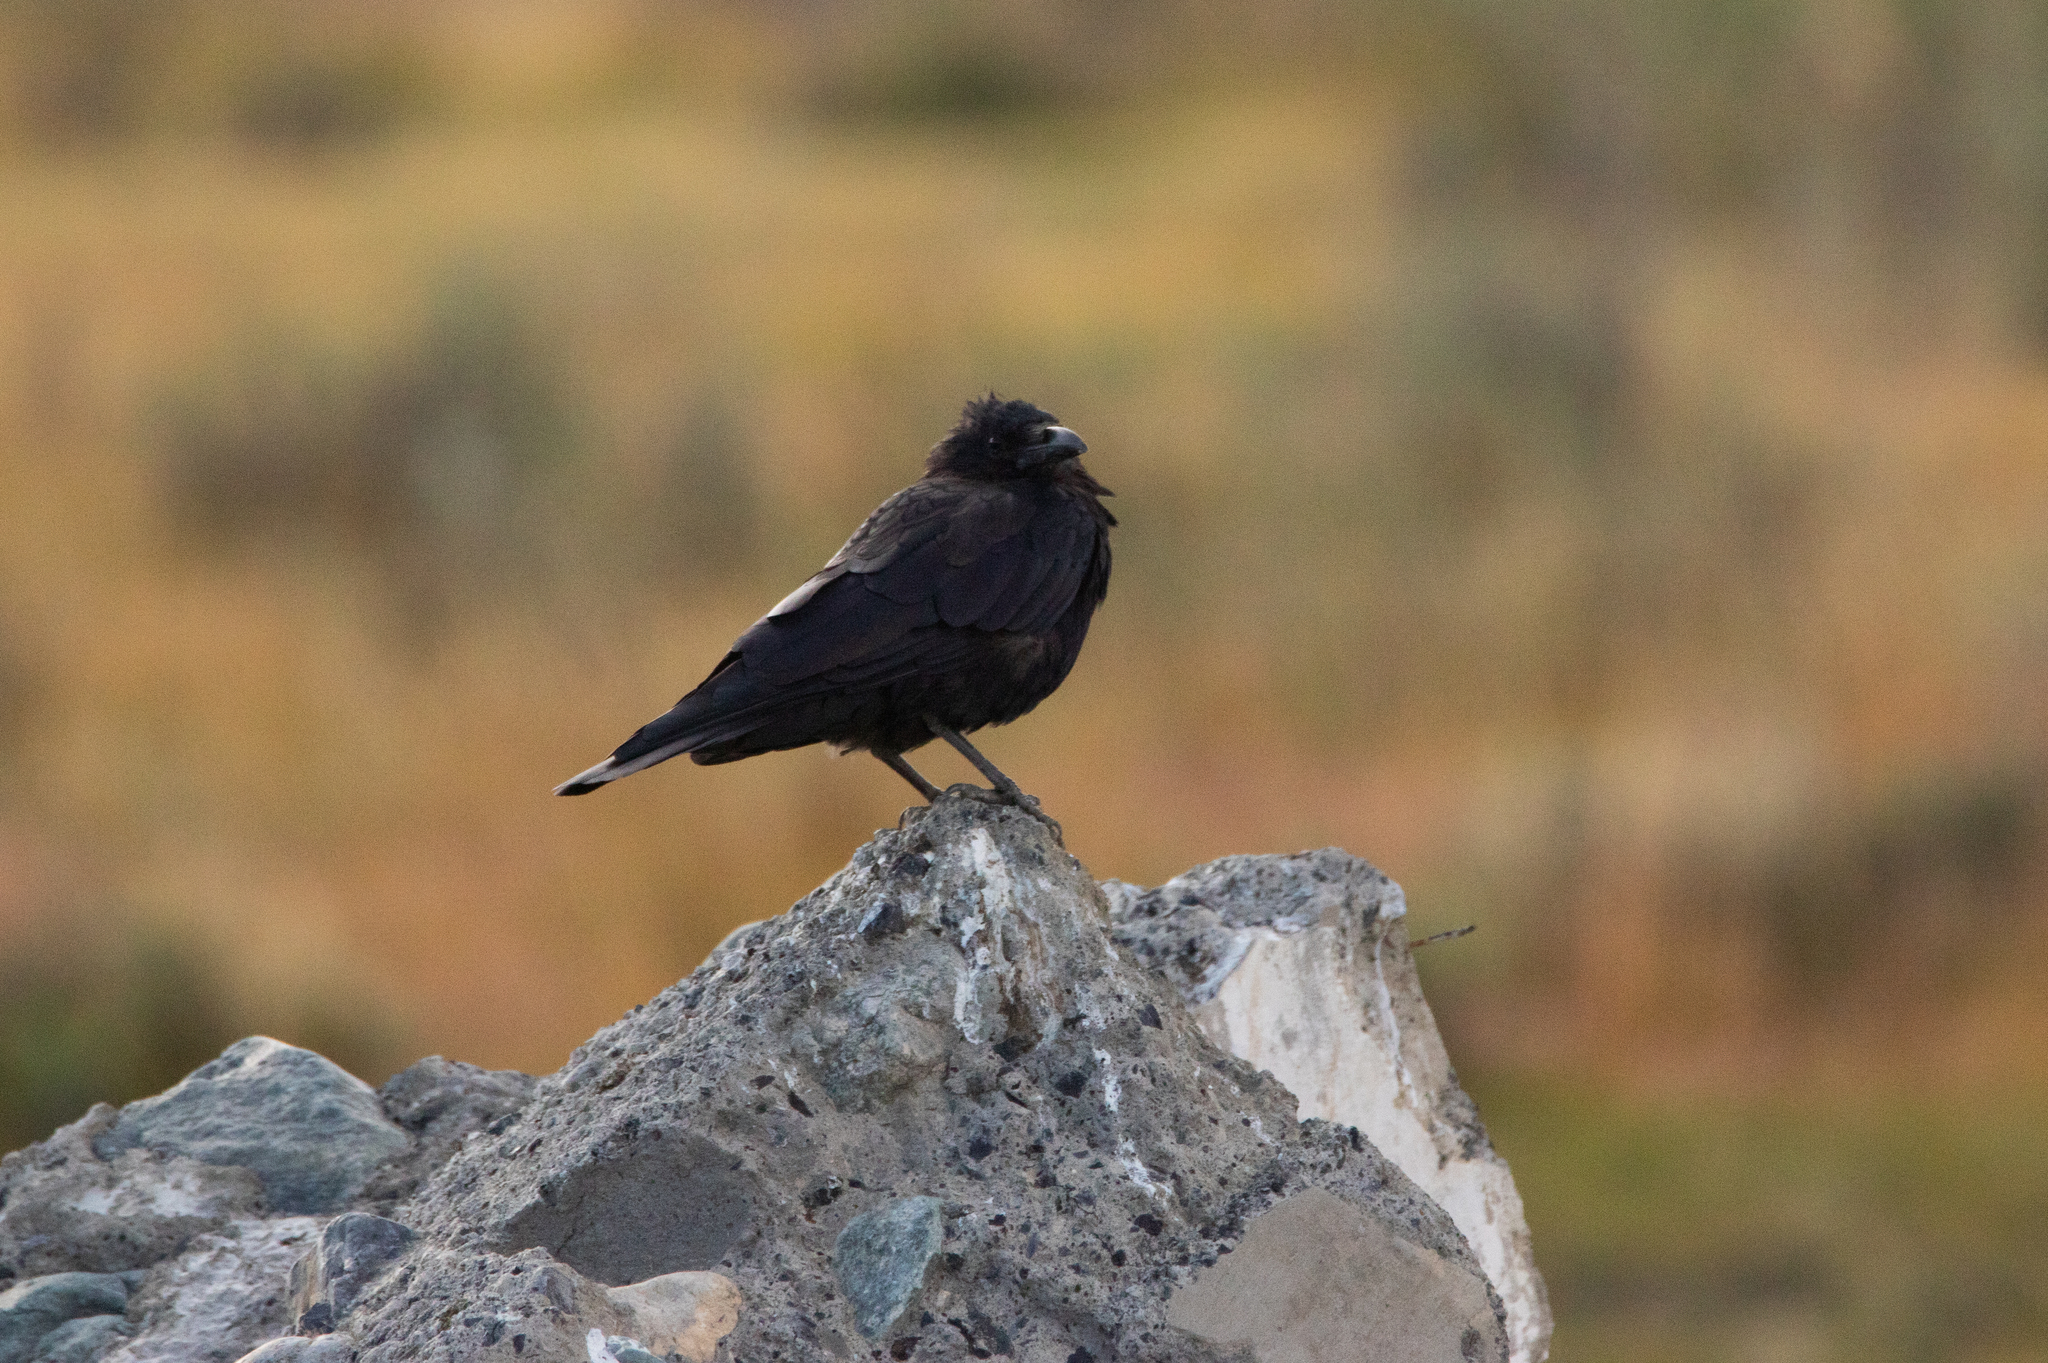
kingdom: Animalia
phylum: Chordata
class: Aves
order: Passeriformes
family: Corvidae
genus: Corvus
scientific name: Corvus corone
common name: Carrion crow
